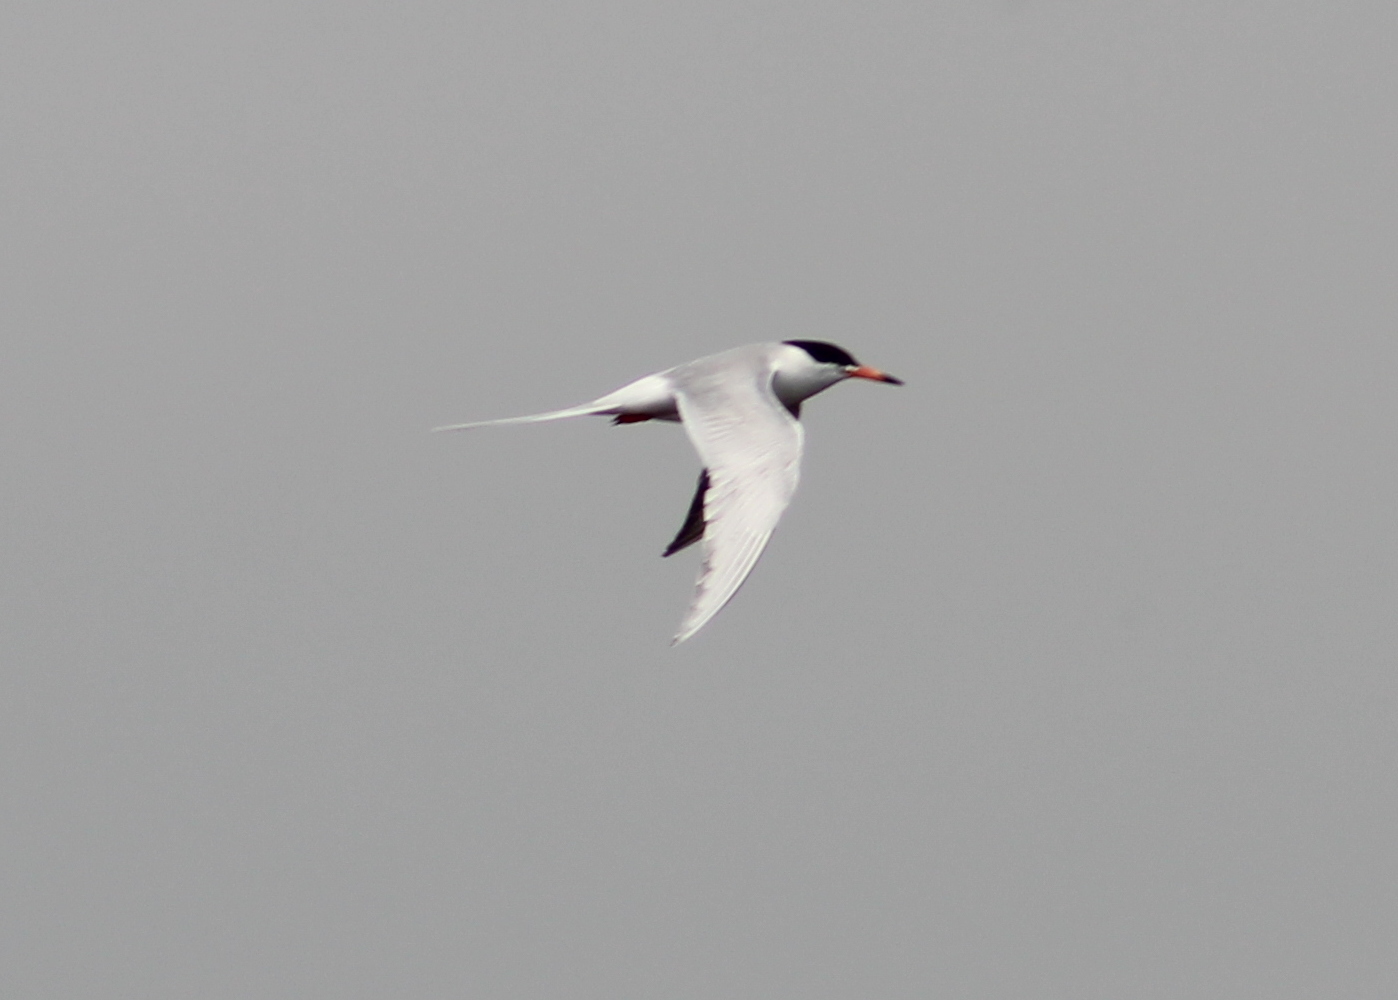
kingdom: Animalia
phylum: Chordata
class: Aves
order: Charadriiformes
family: Laridae
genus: Sterna
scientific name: Sterna forsteri
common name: Forster's tern
